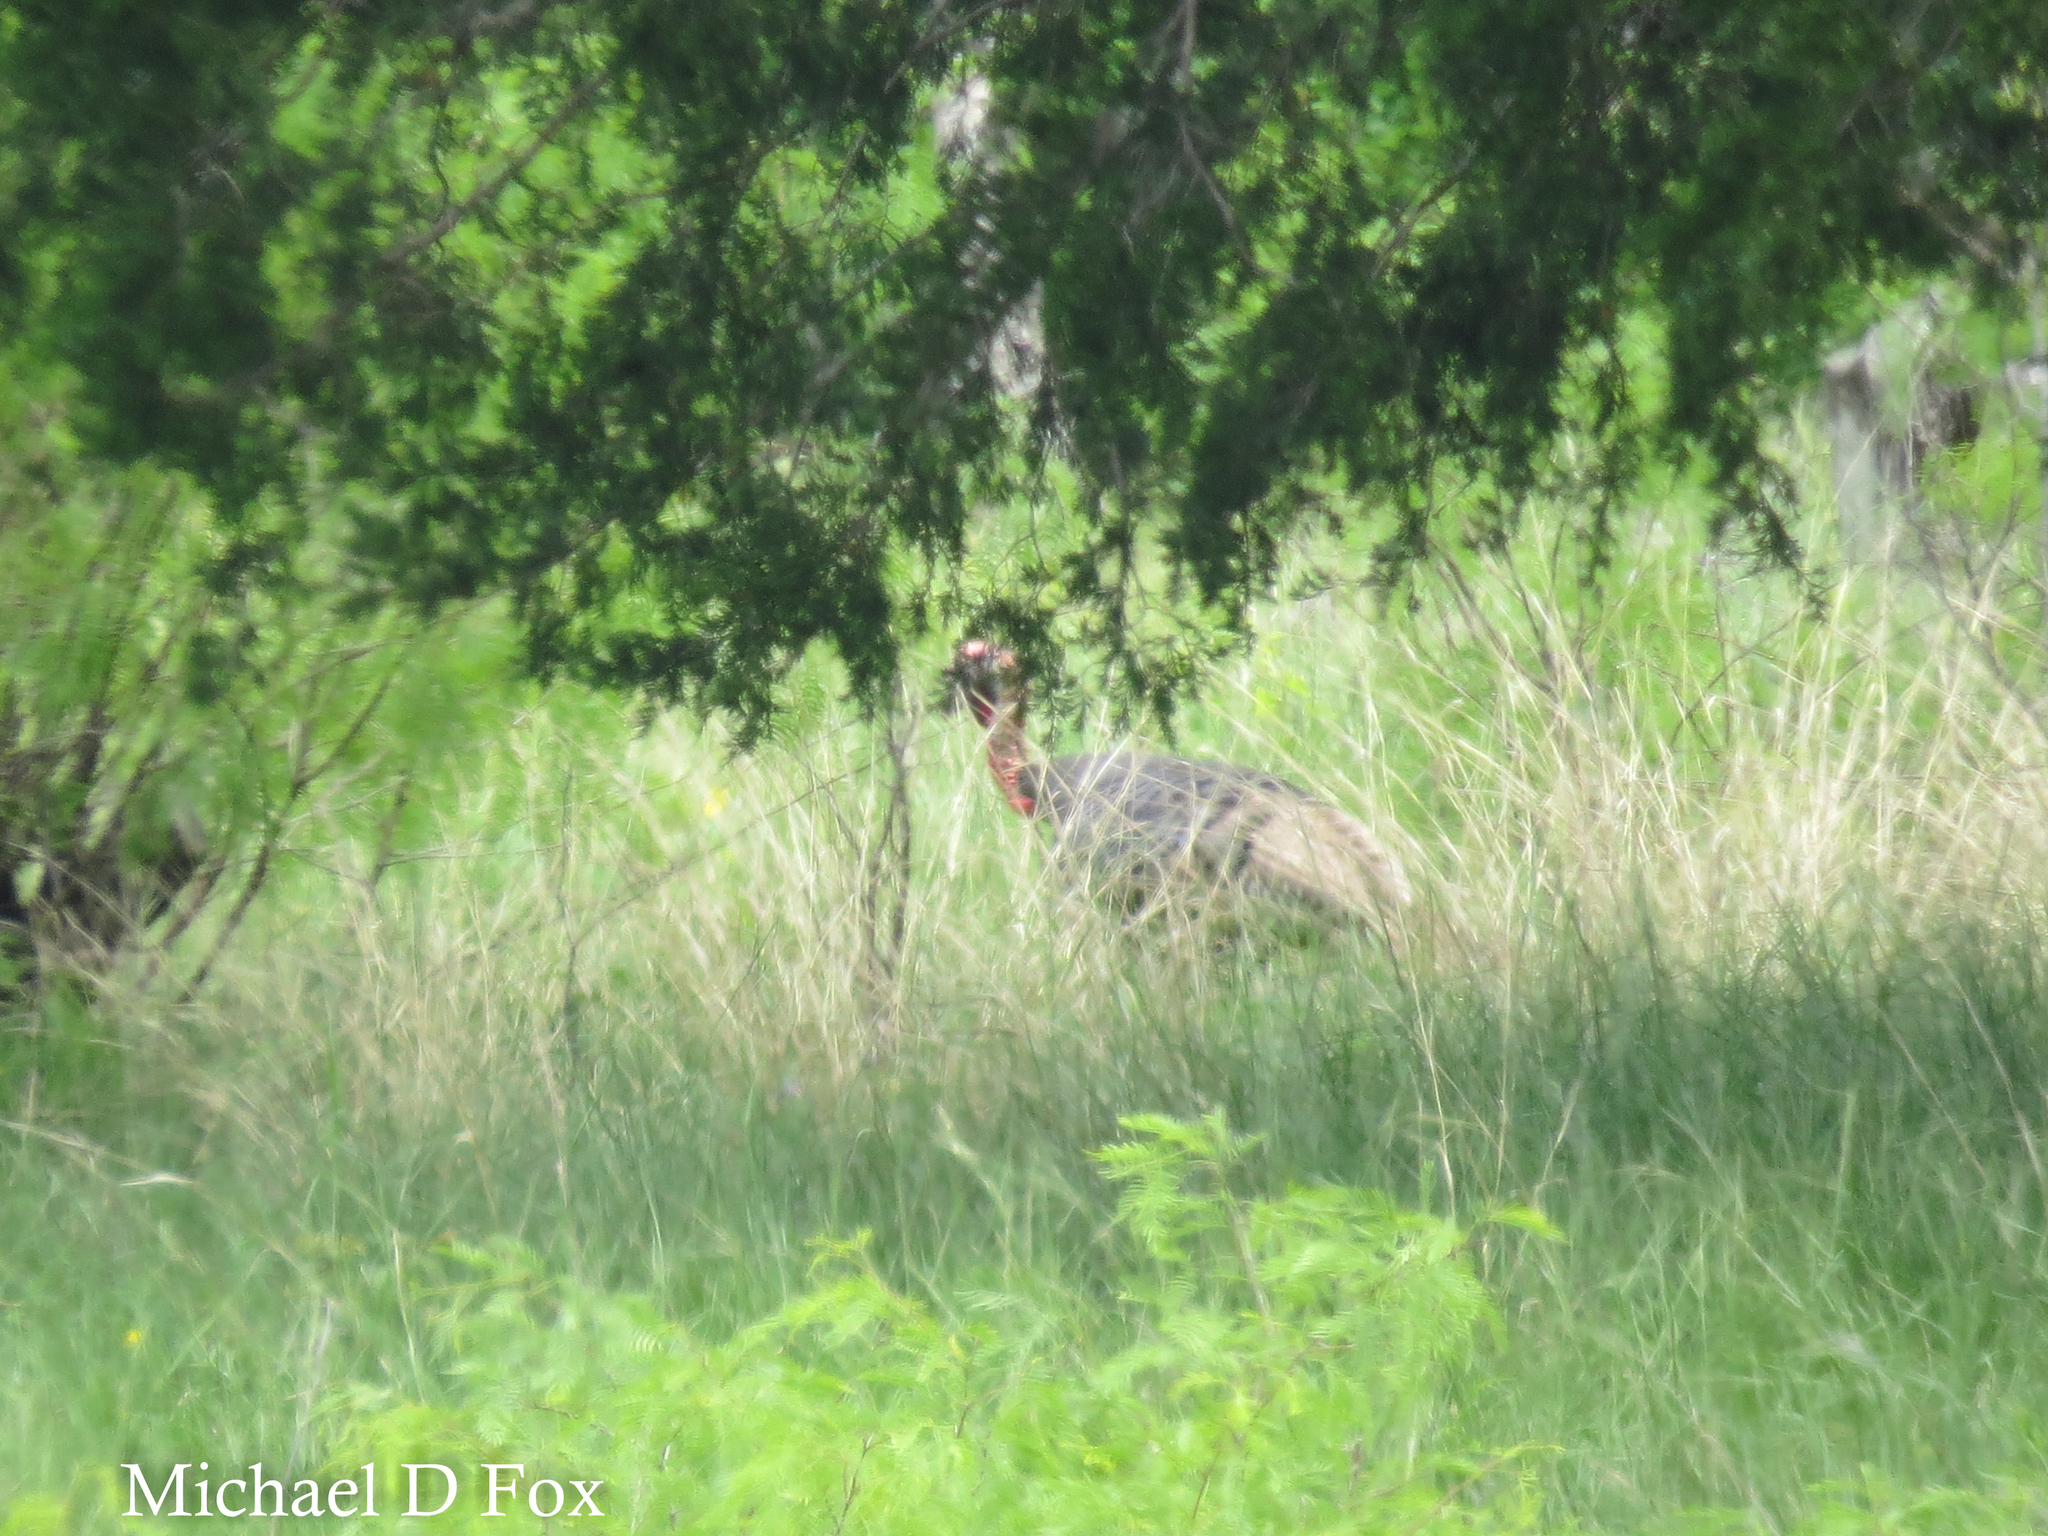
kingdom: Animalia
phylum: Chordata
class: Aves
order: Galliformes
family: Phasianidae
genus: Meleagris
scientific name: Meleagris gallopavo
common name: Wild turkey
